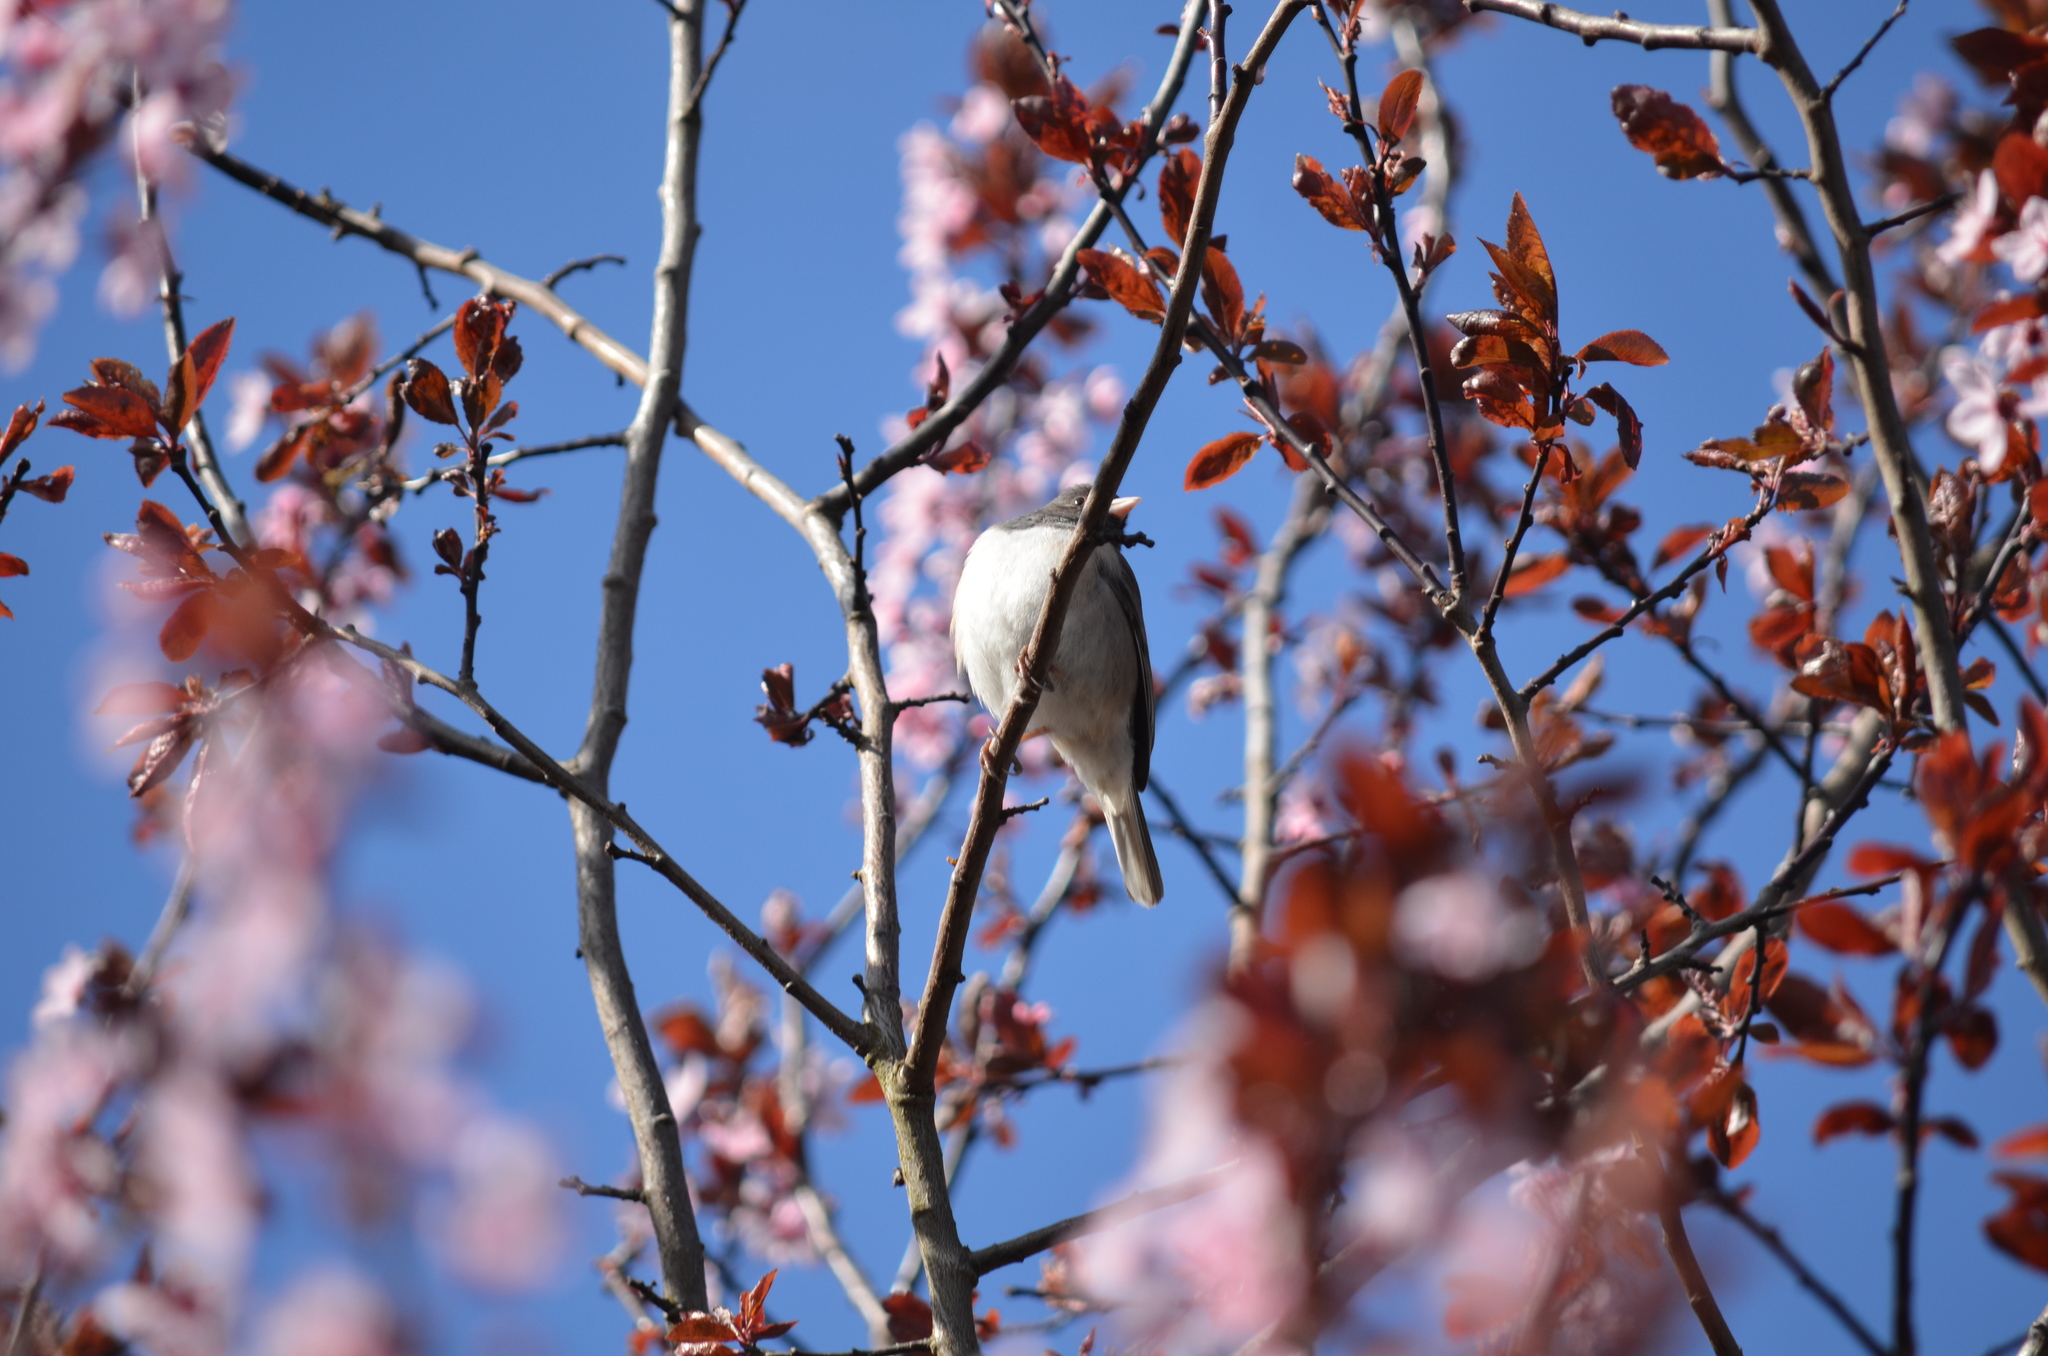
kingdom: Animalia
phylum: Chordata
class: Aves
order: Passeriformes
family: Passerellidae
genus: Junco
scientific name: Junco hyemalis
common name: Dark-eyed junco
